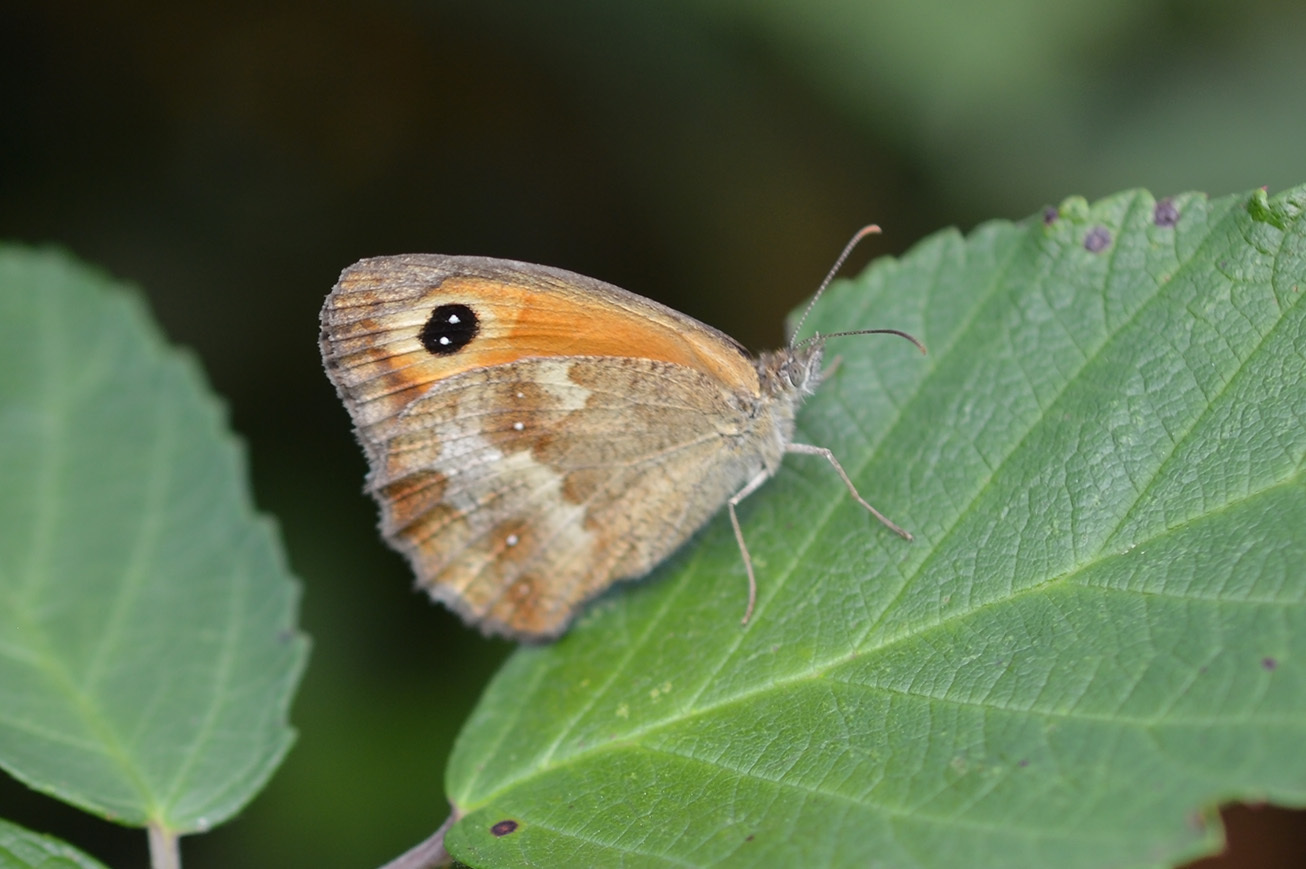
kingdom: Animalia
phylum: Arthropoda
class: Insecta
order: Lepidoptera
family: Nymphalidae
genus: Pyronia
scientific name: Pyronia tithonus
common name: Gatekeeper
